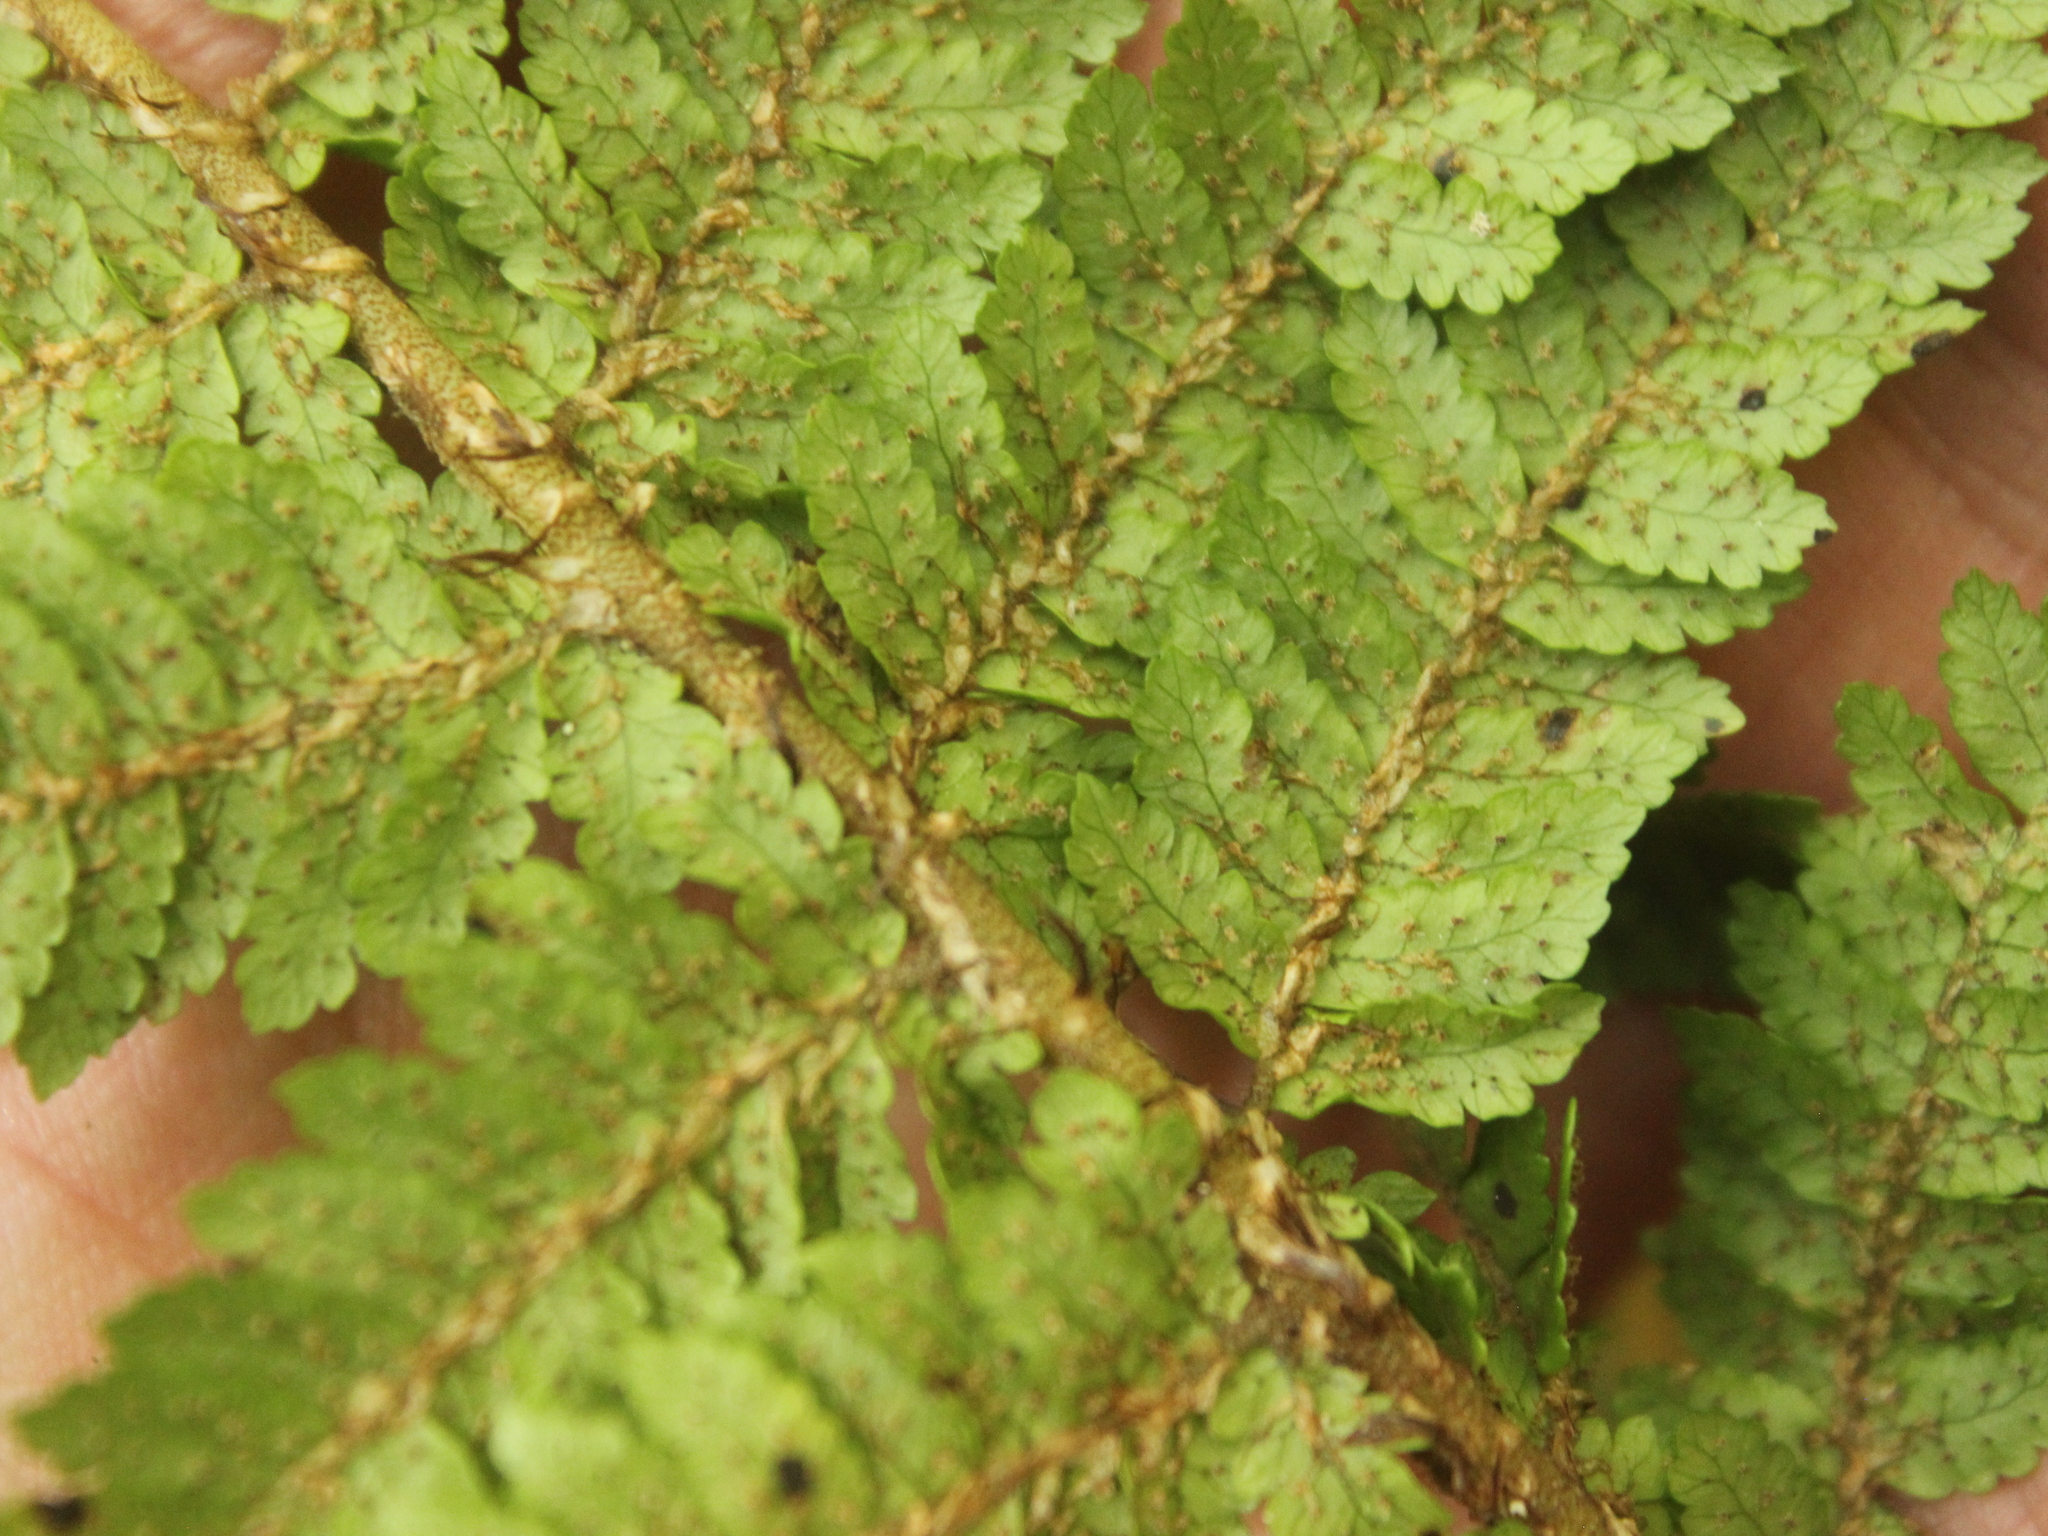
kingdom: Plantae
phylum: Tracheophyta
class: Polypodiopsida
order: Cyatheales
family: Cyatheaceae
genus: Alsophila
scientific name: Alsophila colensoi
